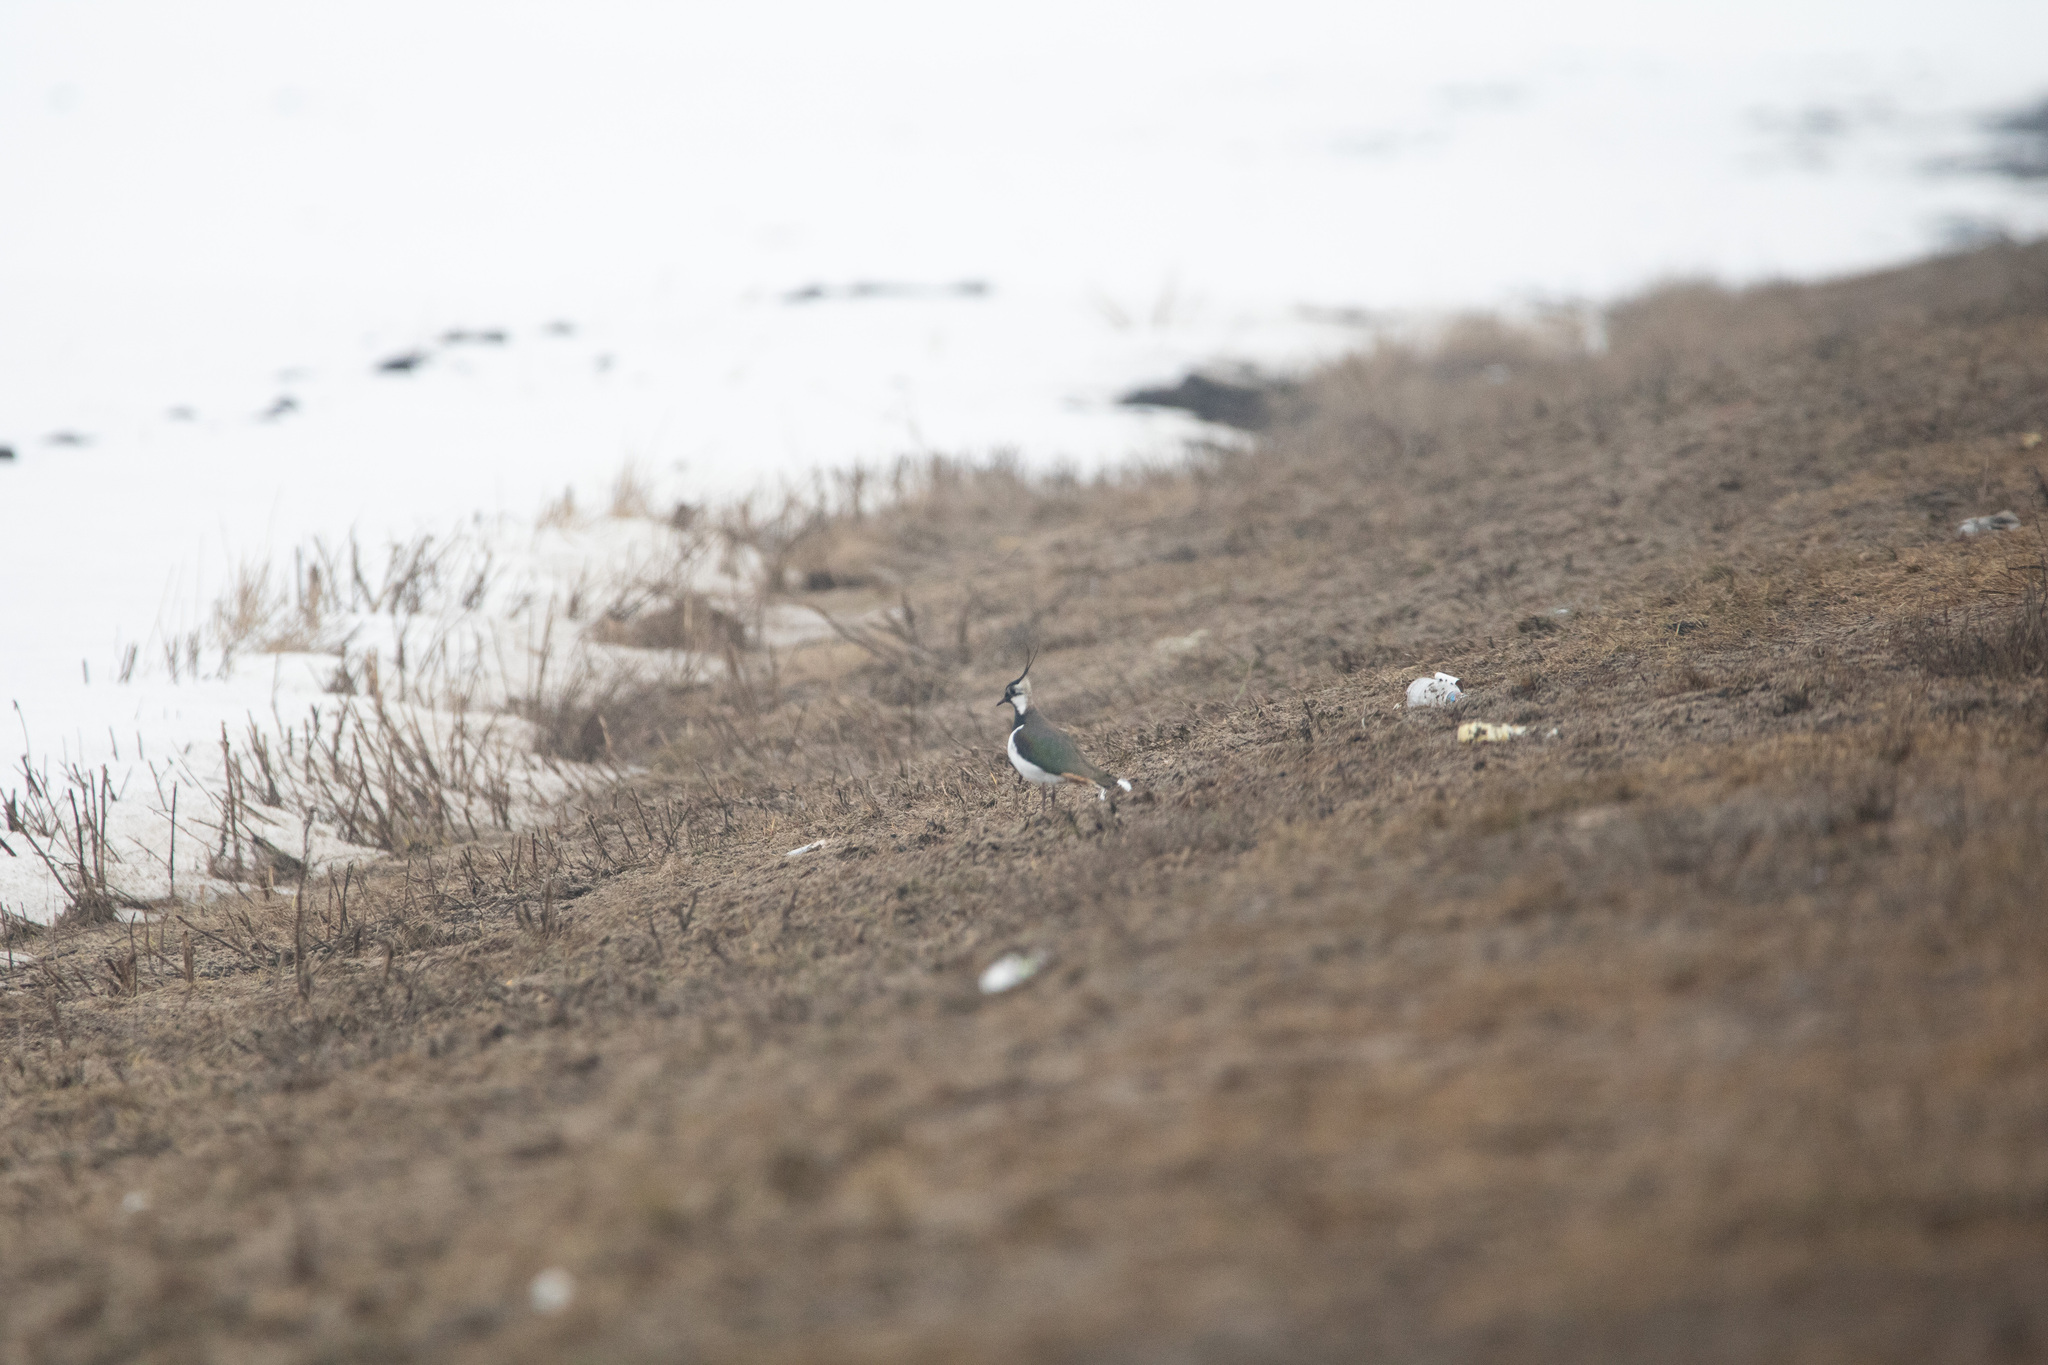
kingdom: Animalia
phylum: Chordata
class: Aves
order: Charadriiformes
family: Charadriidae
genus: Vanellus
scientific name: Vanellus vanellus
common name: Northern lapwing
